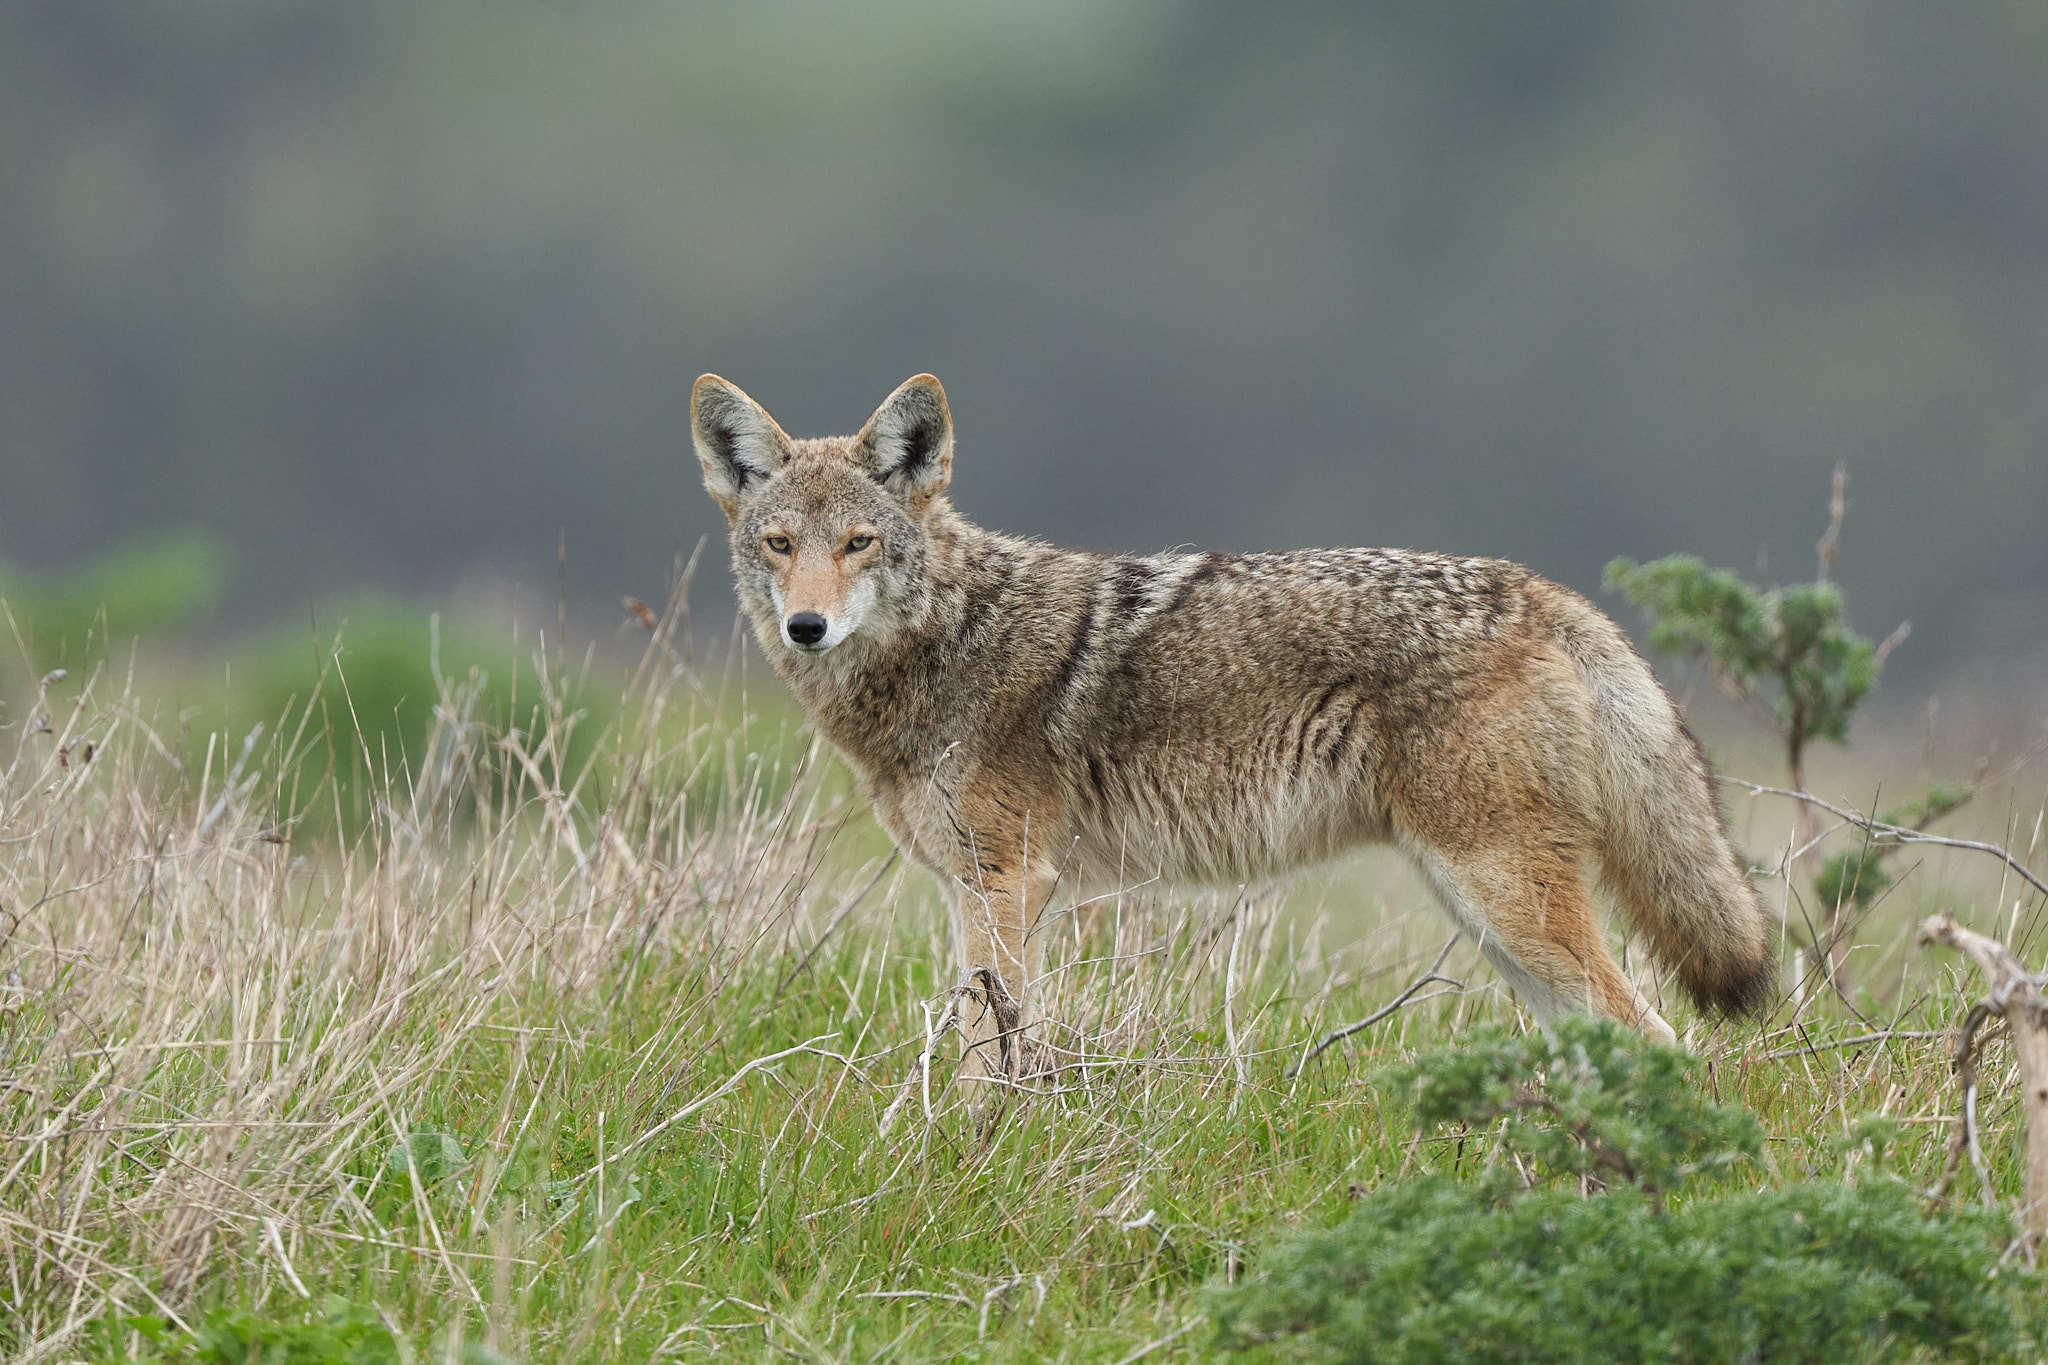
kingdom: Animalia
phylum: Chordata
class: Mammalia
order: Carnivora
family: Canidae
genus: Canis
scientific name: Canis latrans
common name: Coyote
